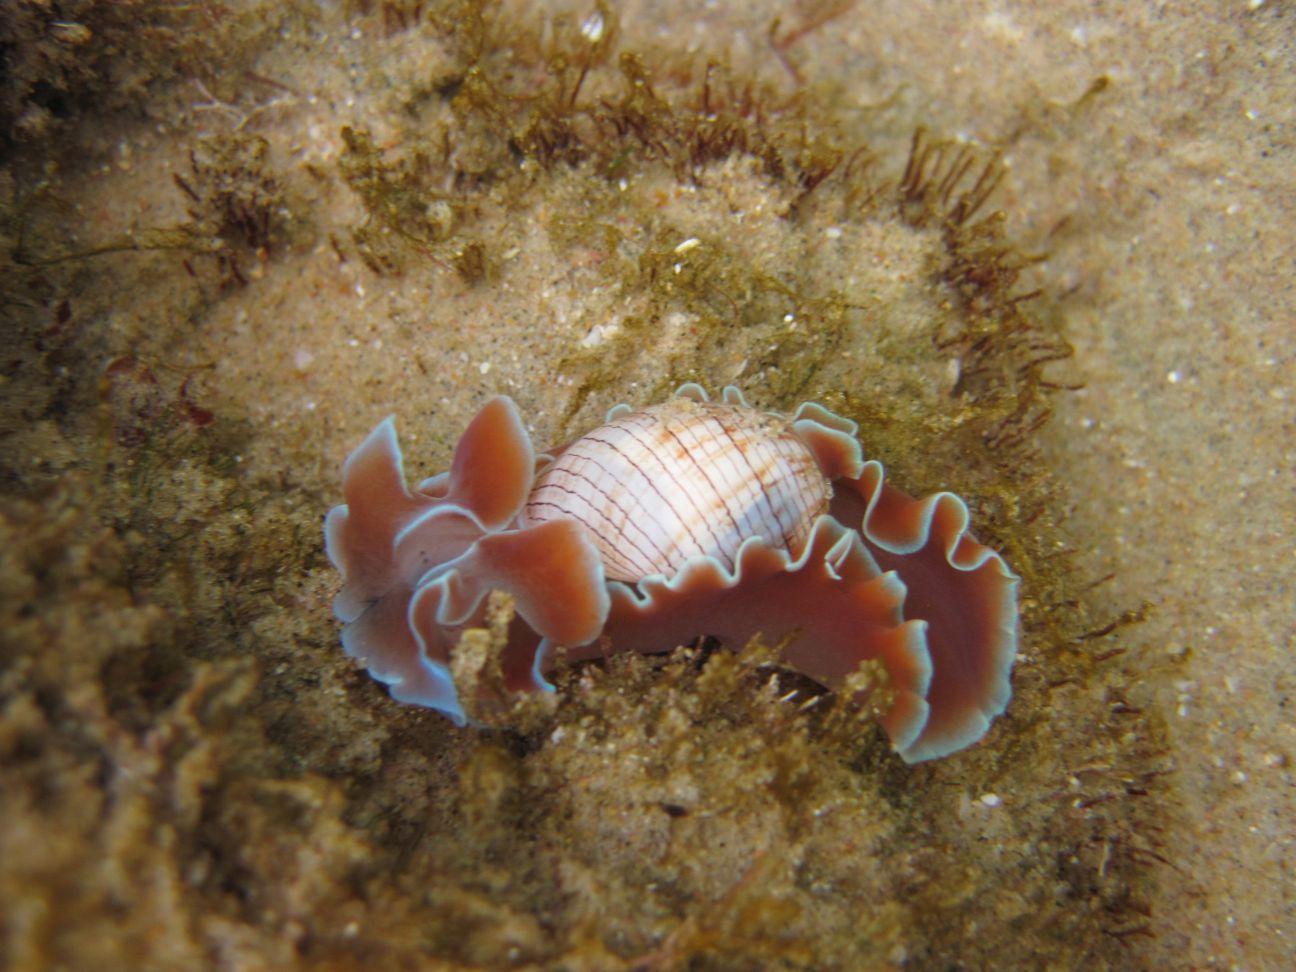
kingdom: Animalia
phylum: Mollusca
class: Gastropoda
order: Cephalaspidea
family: Aplustridae
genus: Hydatina
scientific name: Hydatina physis
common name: Brown-line paperbubble
